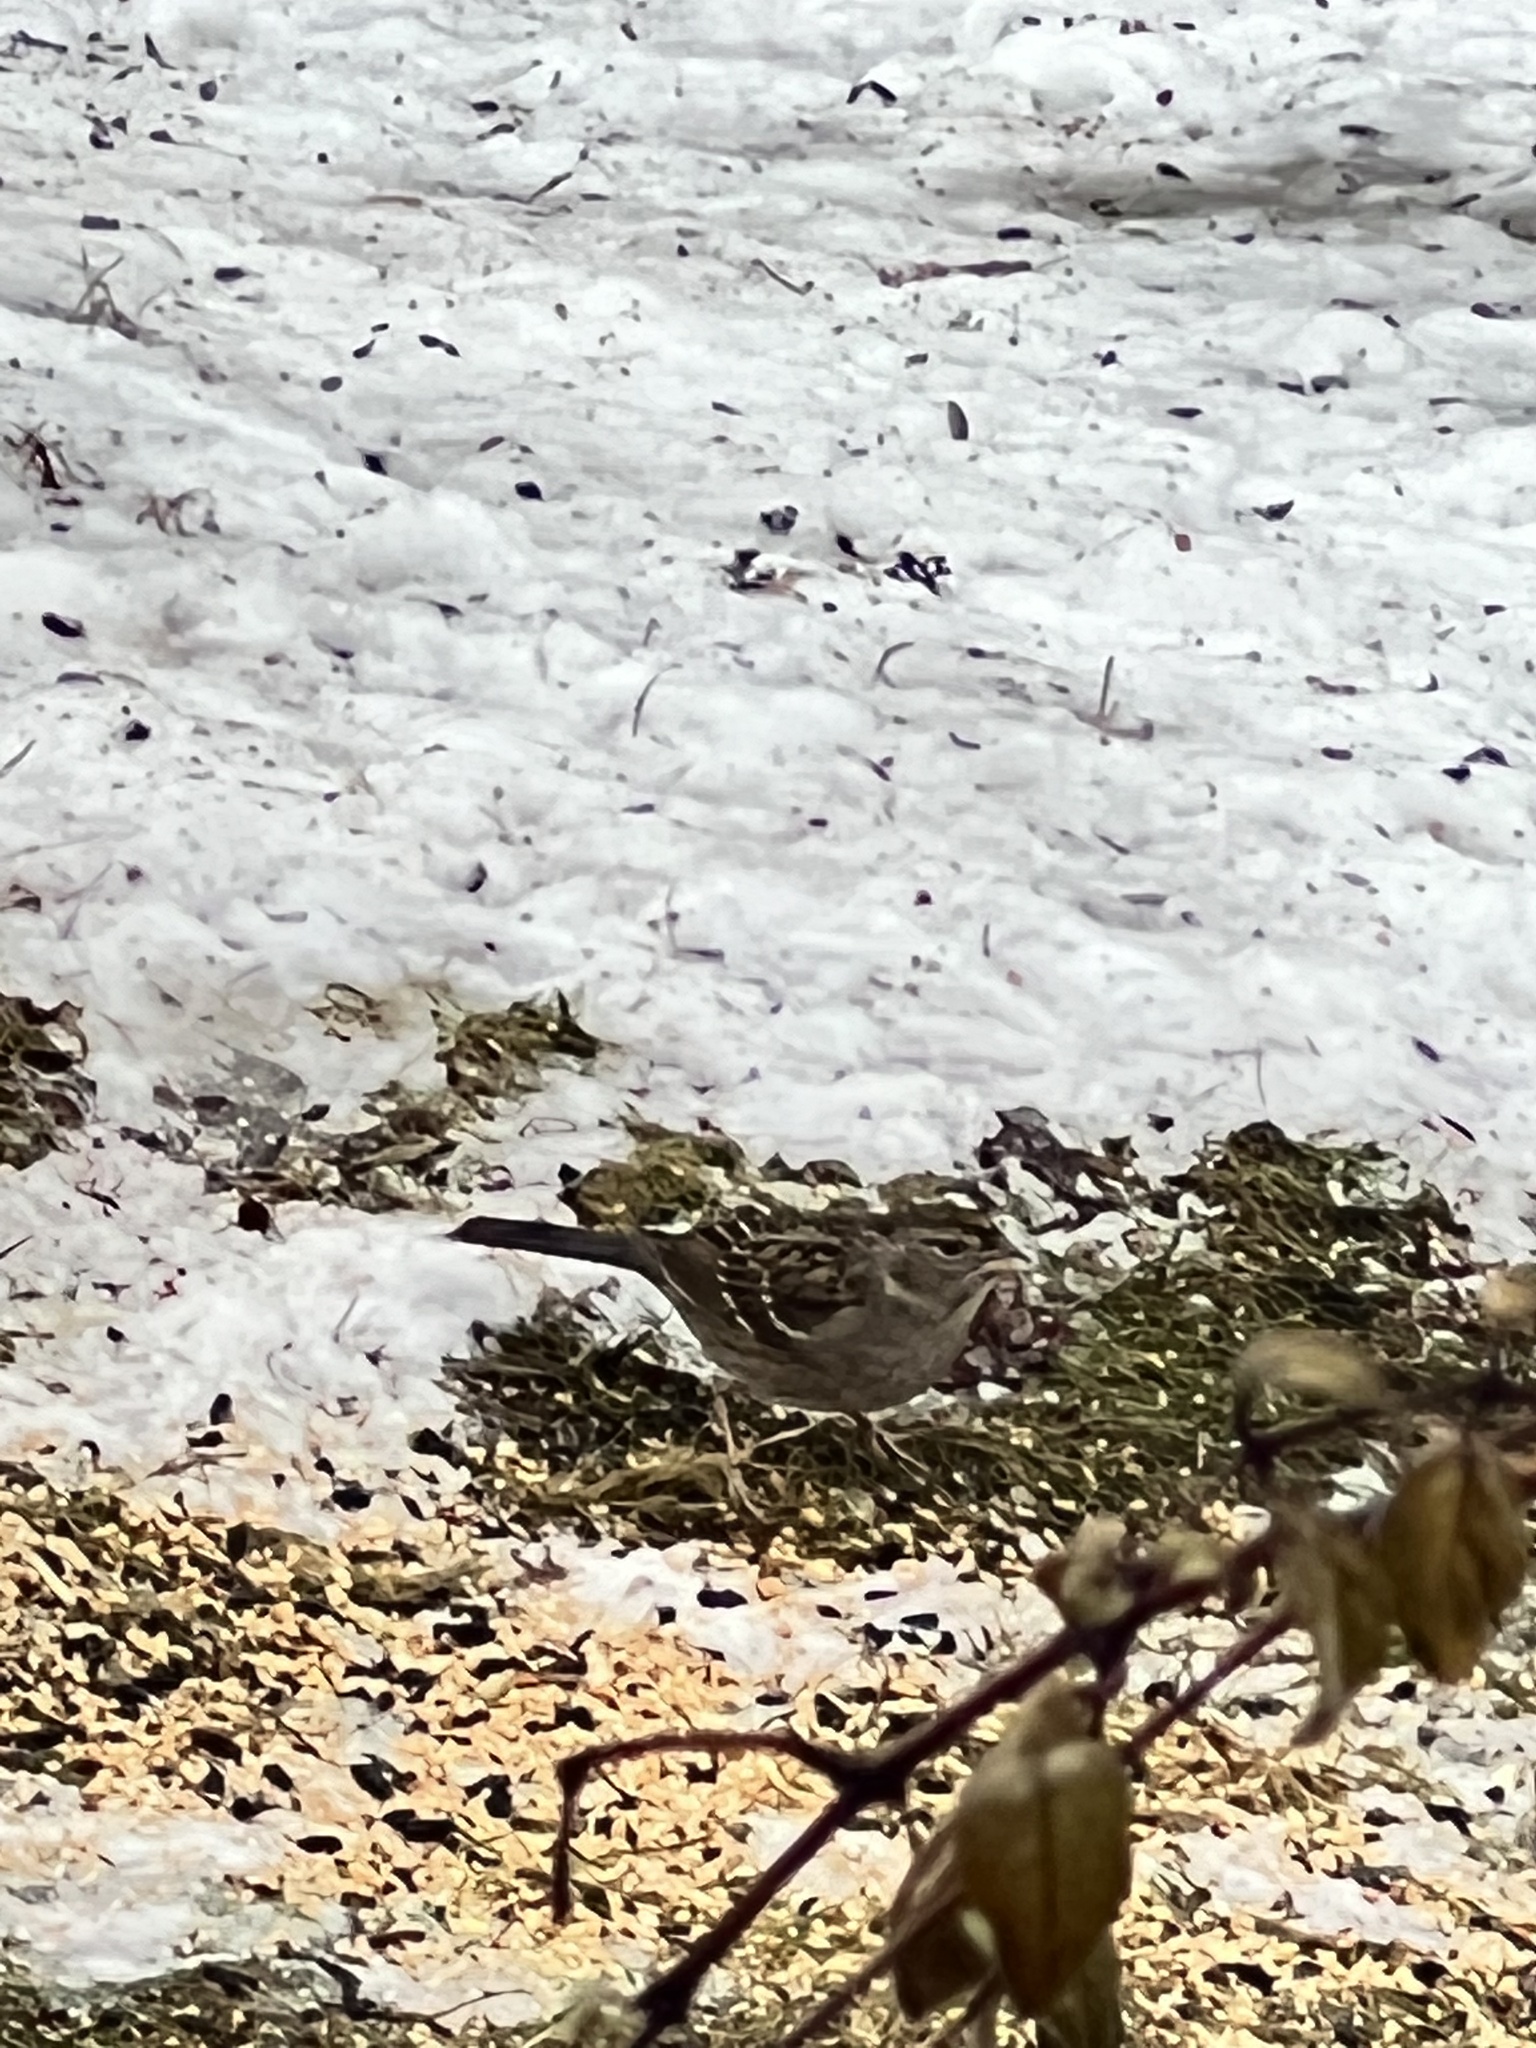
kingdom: Animalia
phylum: Chordata
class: Aves
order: Passeriformes
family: Passerellidae
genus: Zonotrichia
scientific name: Zonotrichia atricapilla
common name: Golden-crowned sparrow
